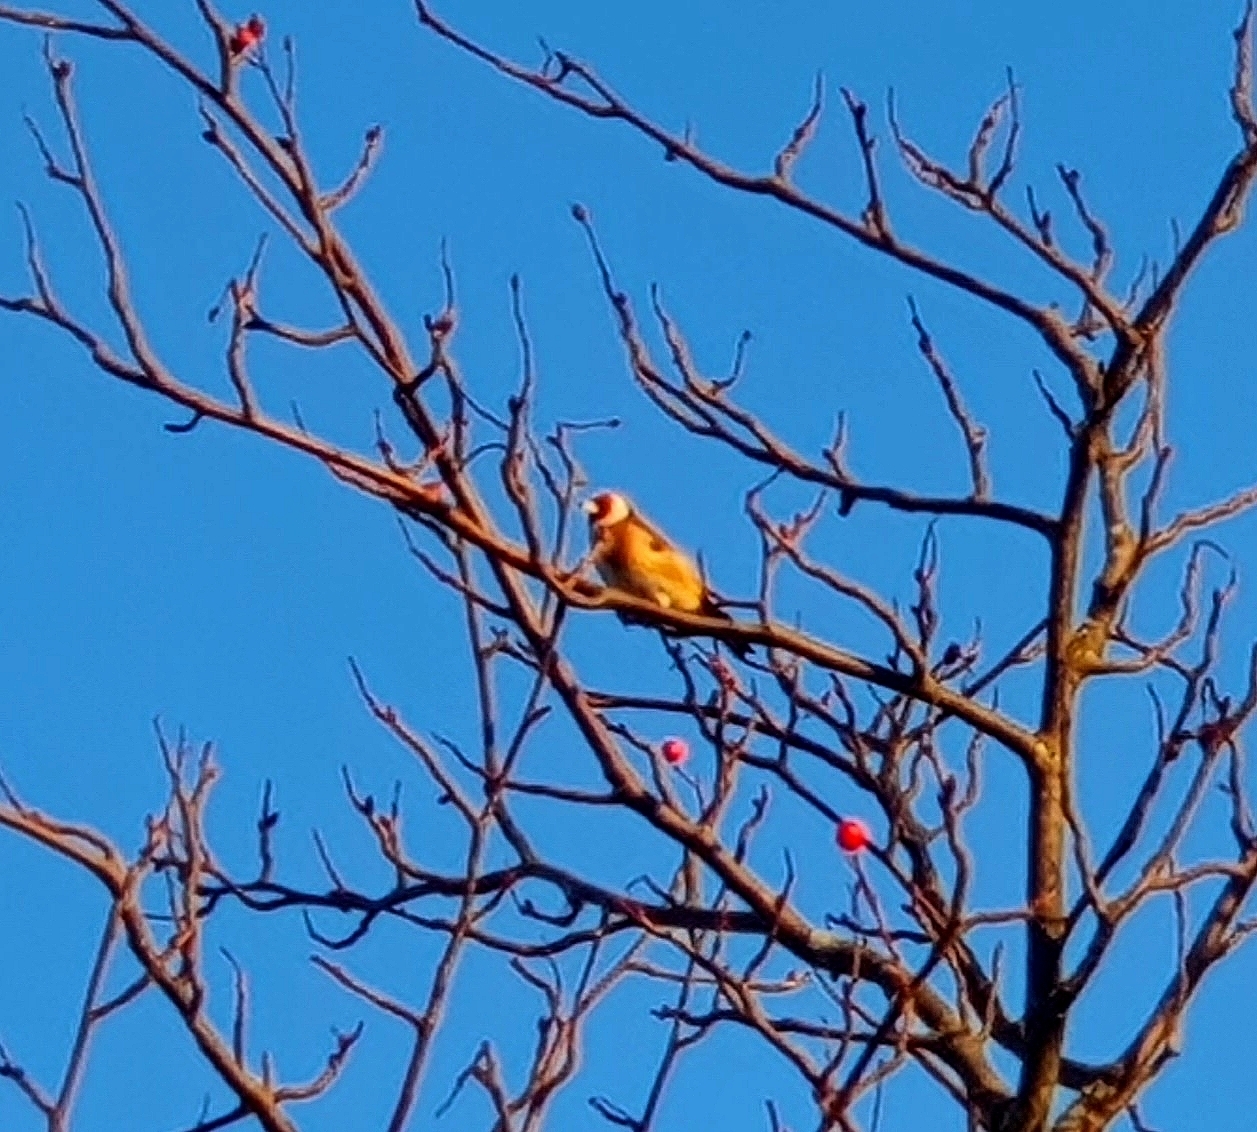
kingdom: Animalia
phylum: Chordata
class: Aves
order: Passeriformes
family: Fringillidae
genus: Carduelis
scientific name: Carduelis carduelis
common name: European goldfinch
